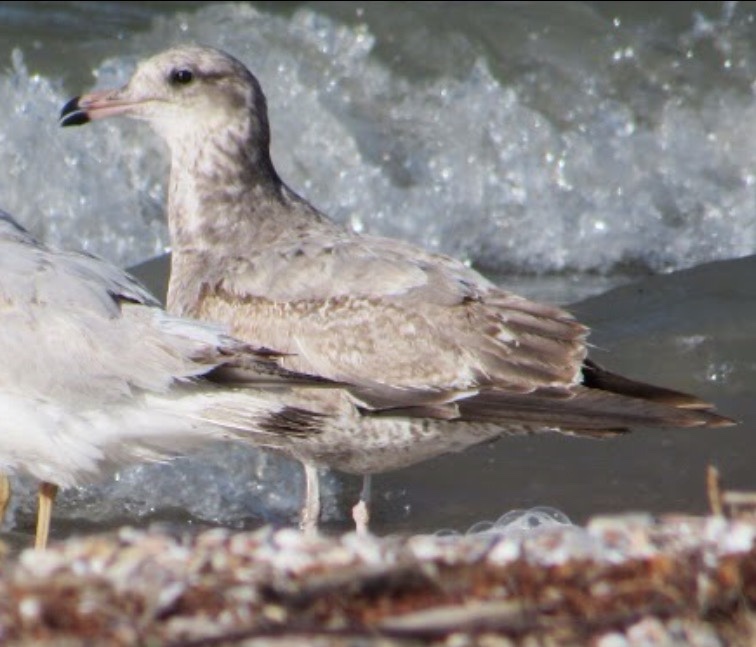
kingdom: Animalia
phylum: Chordata
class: Aves
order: Charadriiformes
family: Laridae
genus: Larus
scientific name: Larus californicus
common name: California gull
